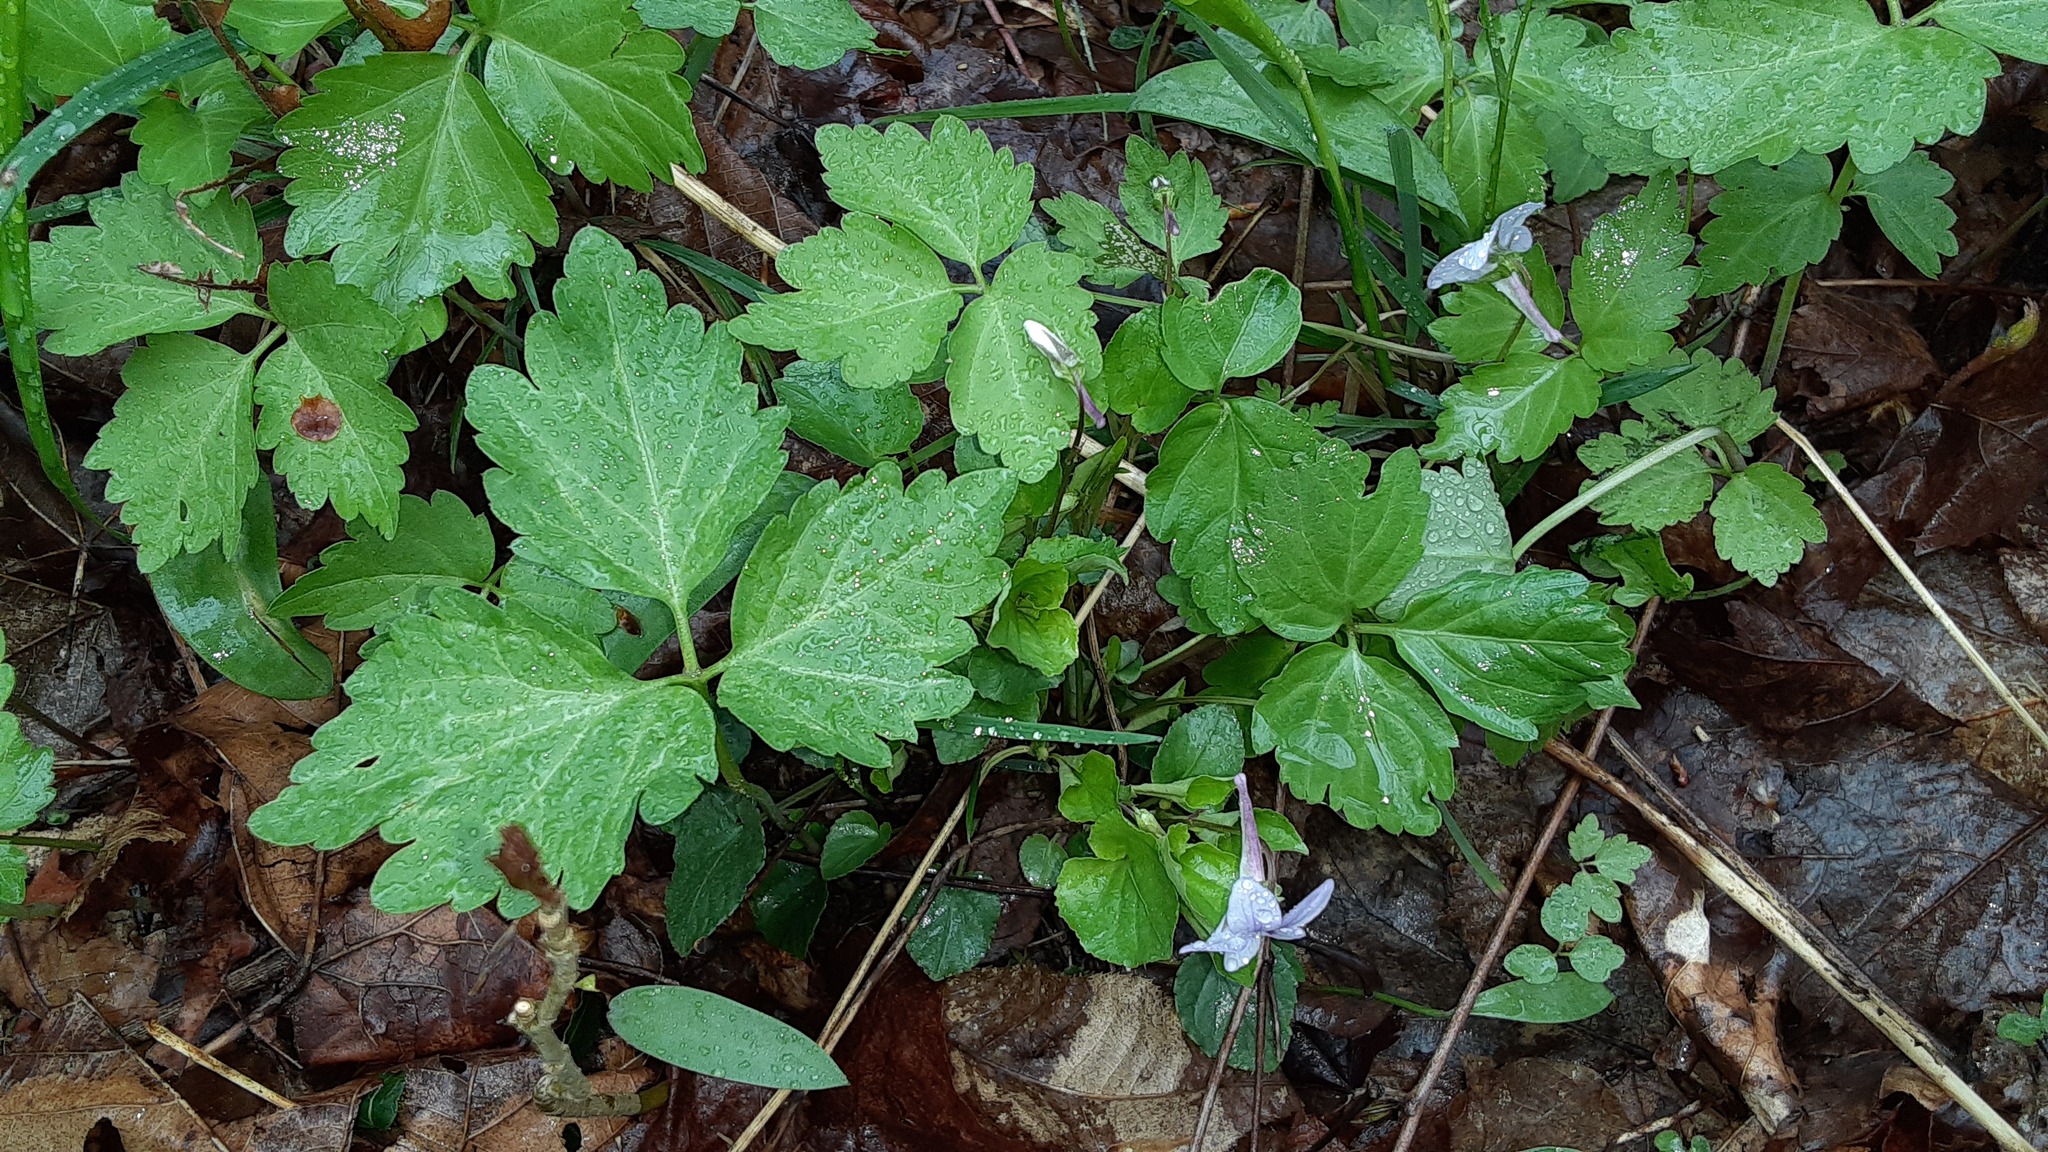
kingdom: Plantae
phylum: Tracheophyta
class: Magnoliopsida
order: Malpighiales
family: Violaceae
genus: Viola
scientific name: Viola rostrata
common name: Long-spur violet
